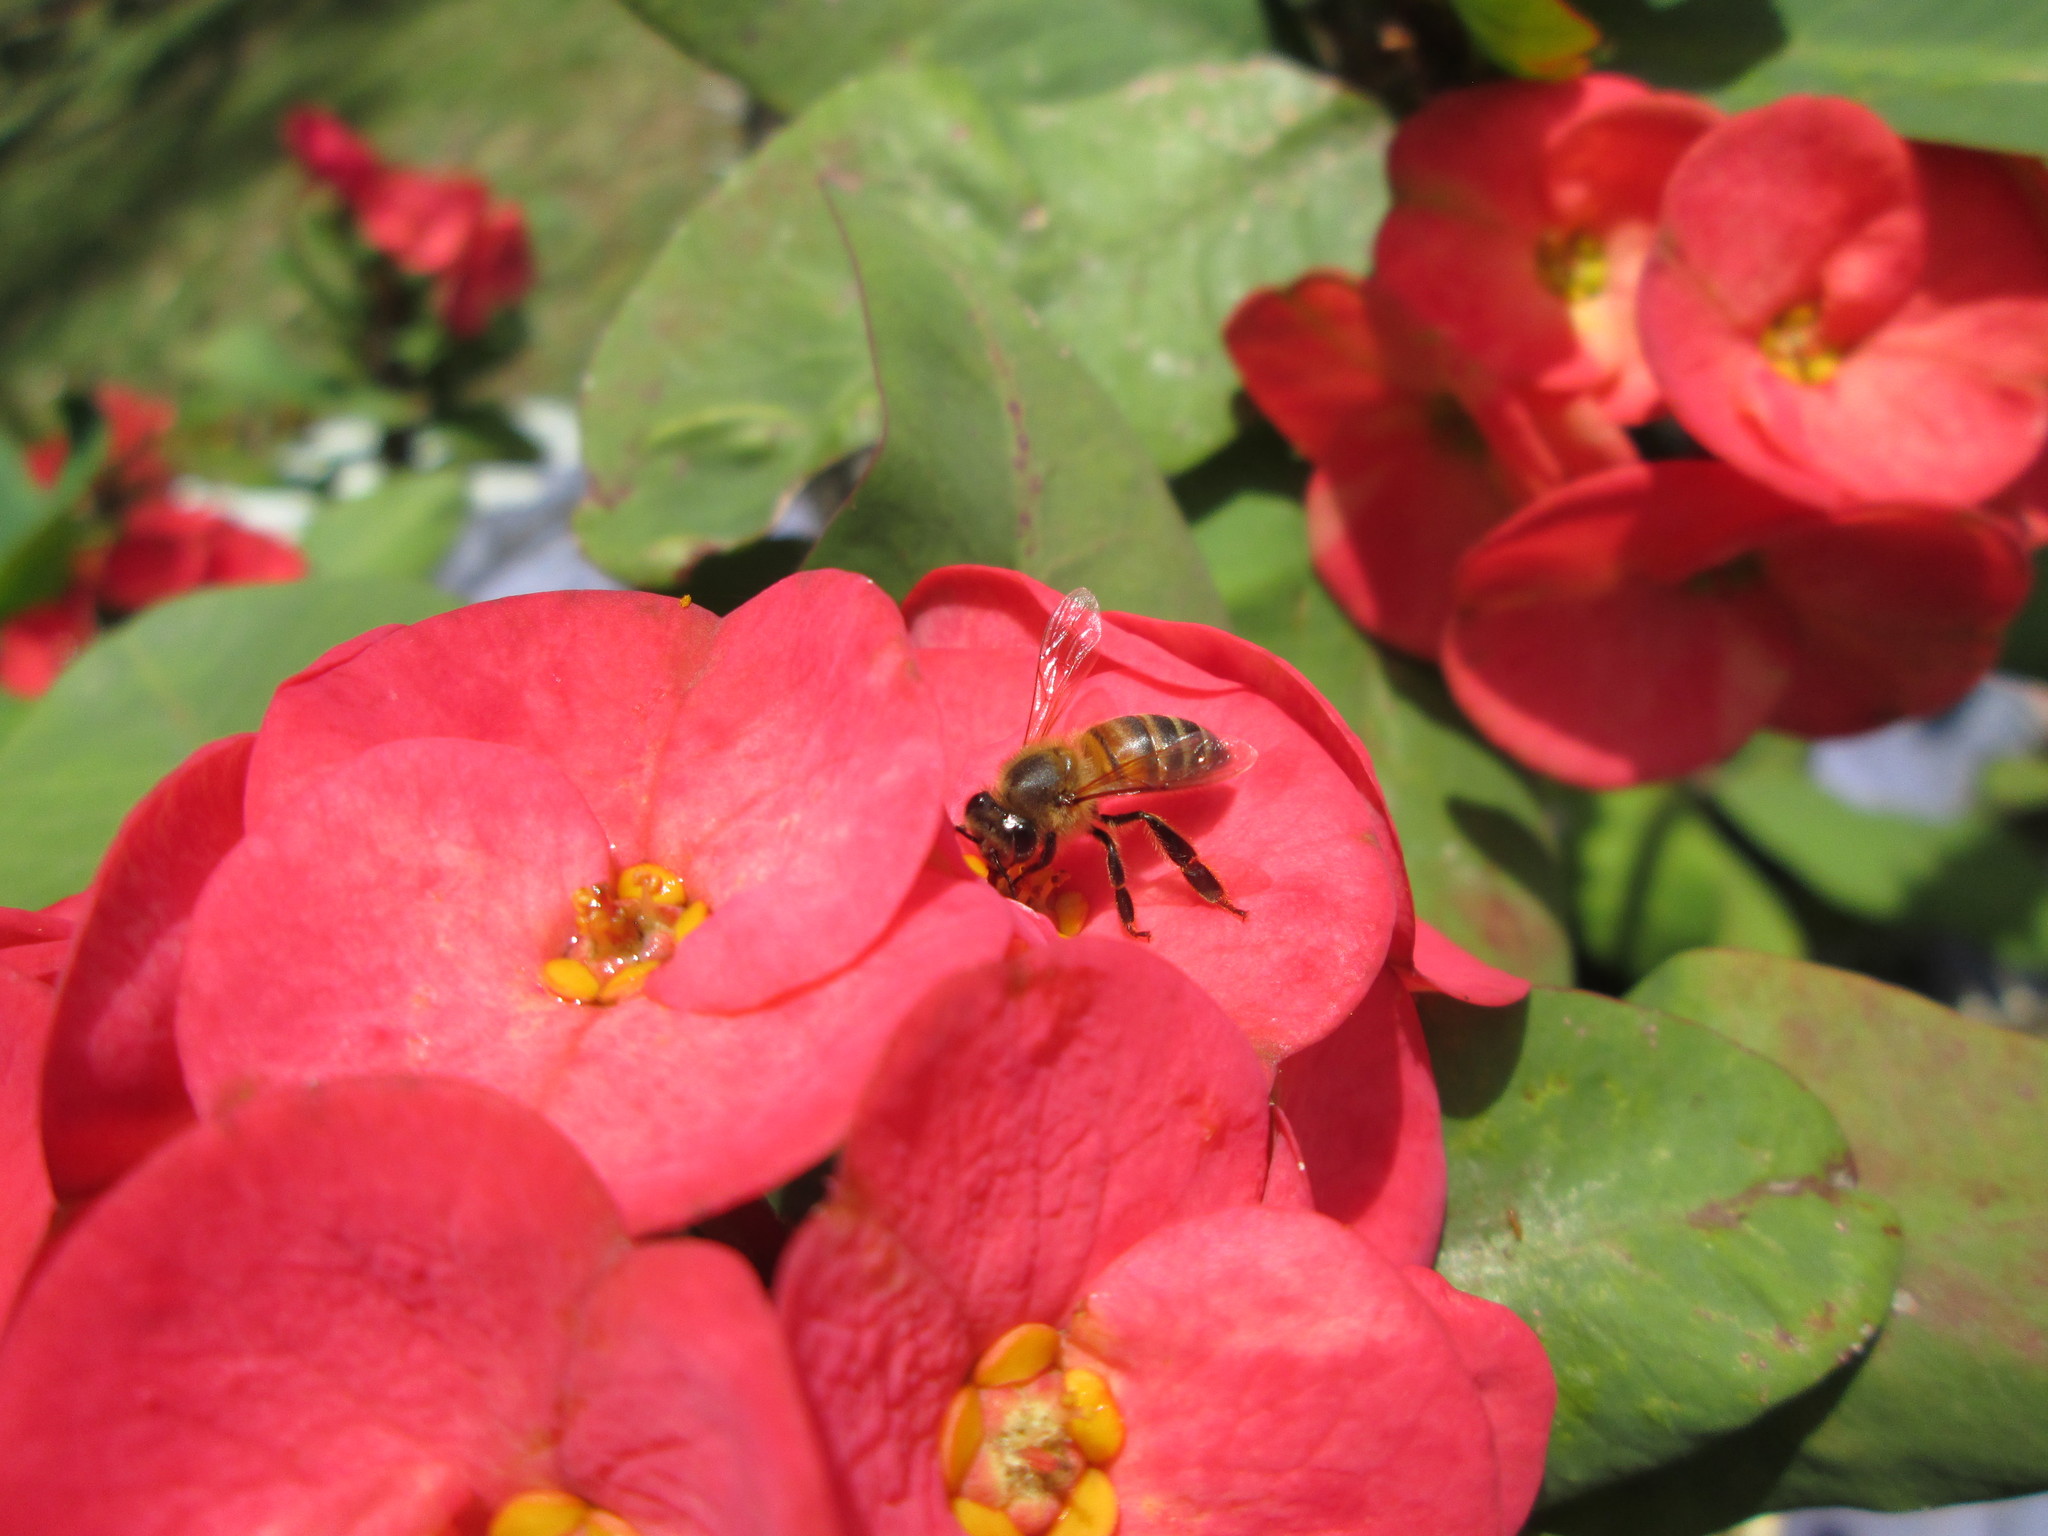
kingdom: Animalia
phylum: Arthropoda
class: Insecta
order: Hymenoptera
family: Apidae
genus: Apis
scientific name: Apis mellifera
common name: Honey bee
